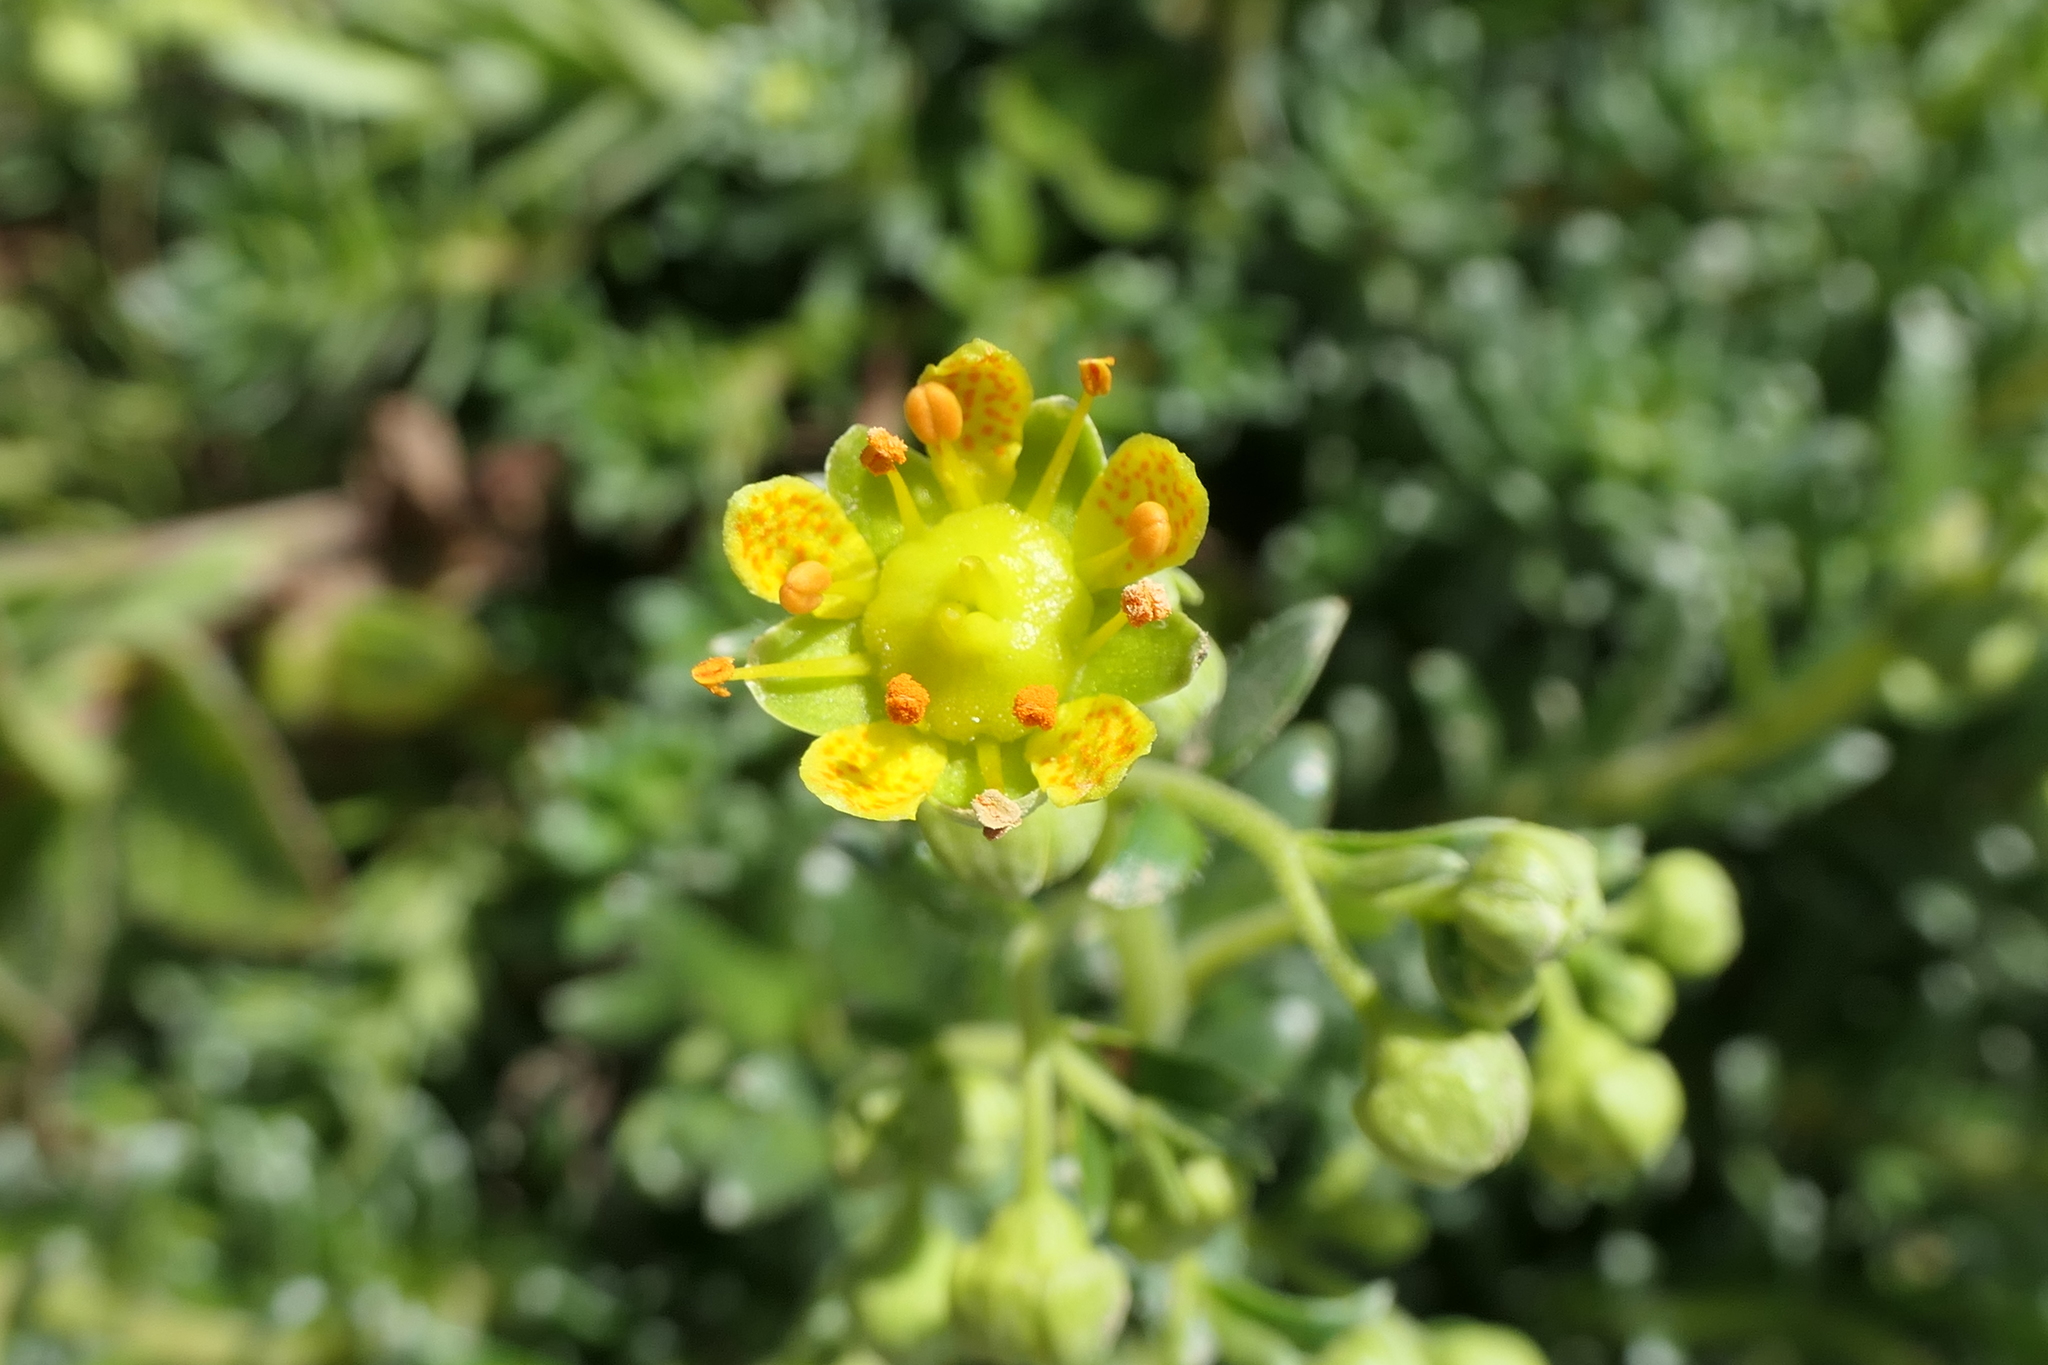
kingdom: Plantae
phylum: Tracheophyta
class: Magnoliopsida
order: Saxifragales
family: Saxifragaceae
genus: Saxifraga
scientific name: Saxifraga aizoides
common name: Yellow mountain saxifrage
